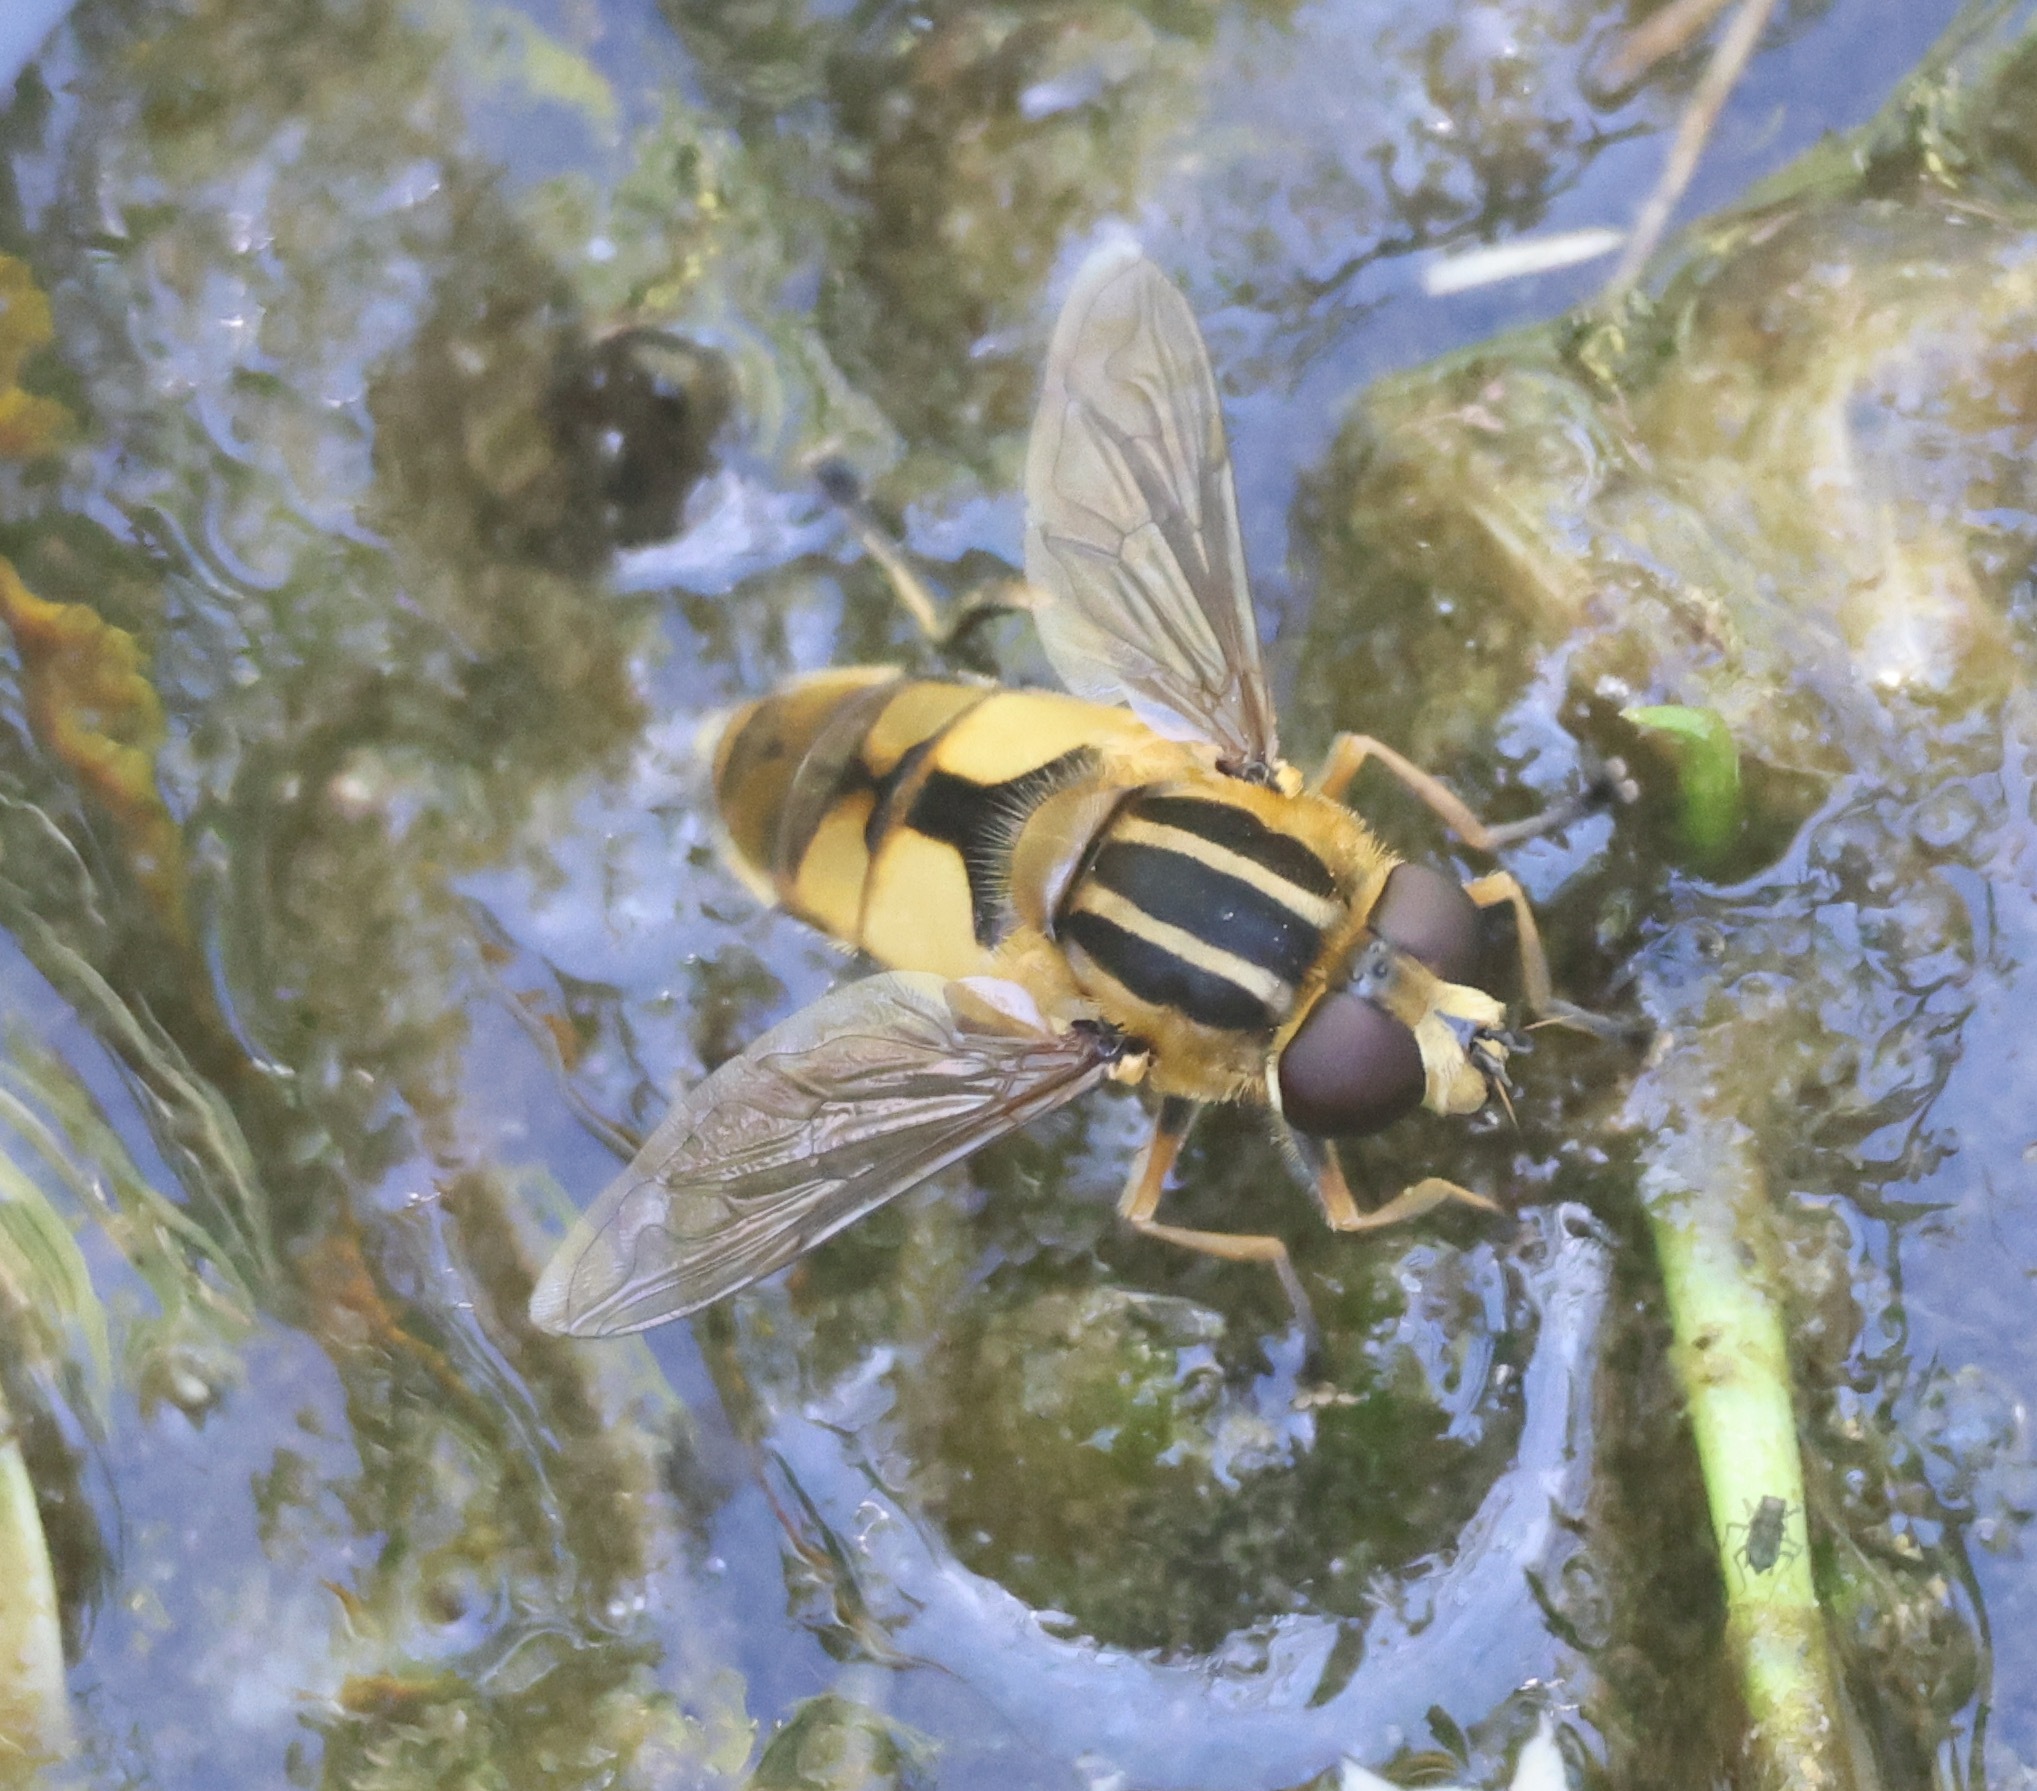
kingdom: Animalia
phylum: Arthropoda
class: Insecta
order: Diptera
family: Syrphidae
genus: Helophilus
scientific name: Helophilus hybridus
